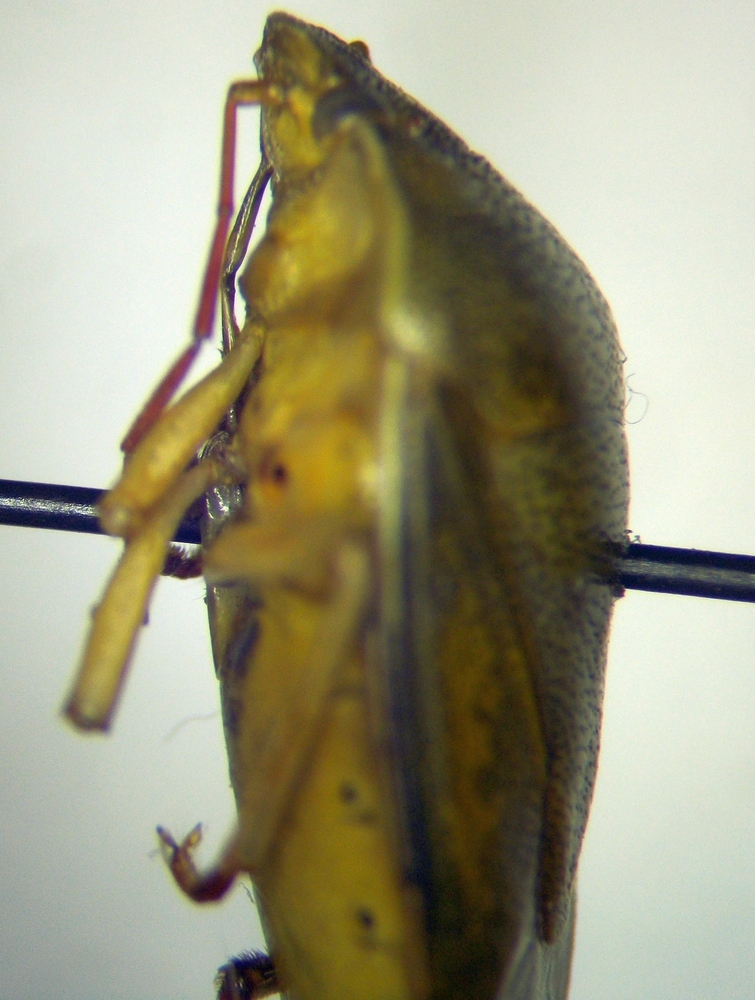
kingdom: Animalia
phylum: Arthropoda
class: Insecta
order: Hemiptera
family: Pentatomidae
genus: Piezodorus
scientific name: Piezodorus lituratus
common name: Stink bug
